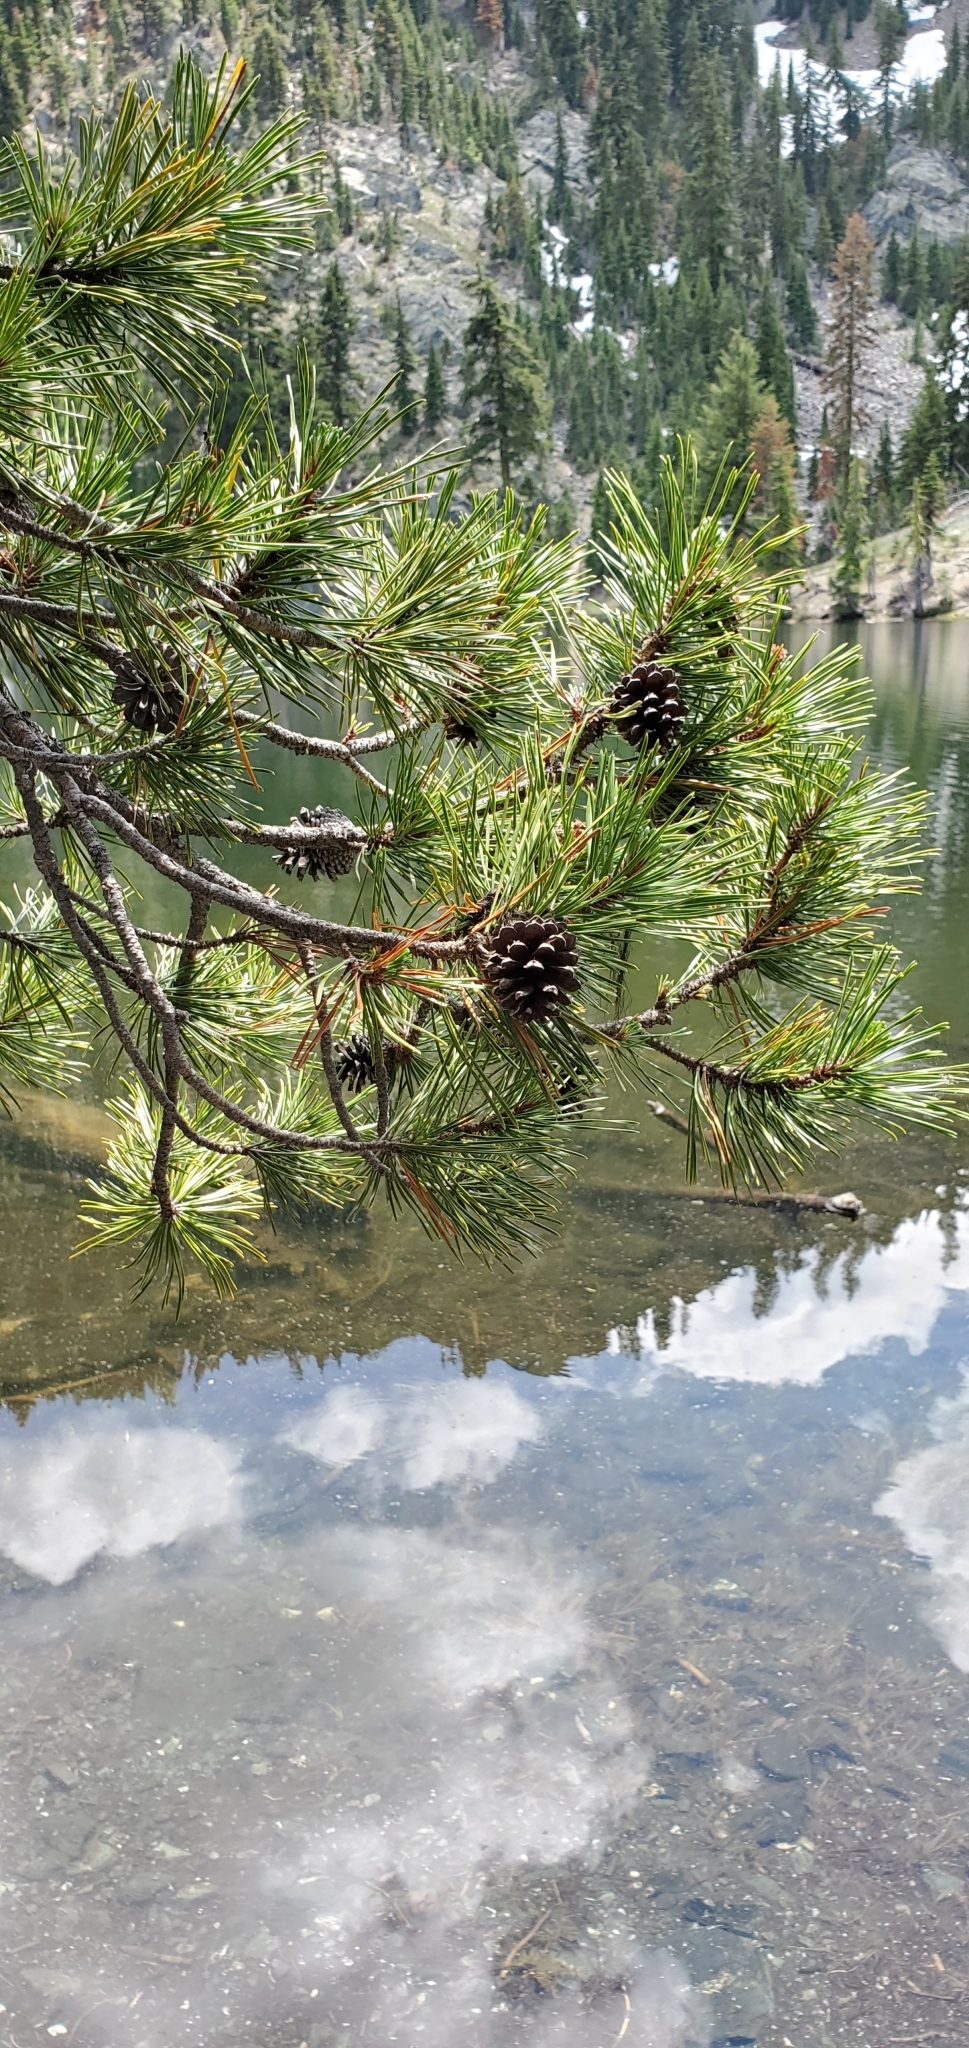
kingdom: Plantae
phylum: Tracheophyta
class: Pinopsida
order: Pinales
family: Pinaceae
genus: Pinus
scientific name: Pinus contorta
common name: Lodgepole pine
